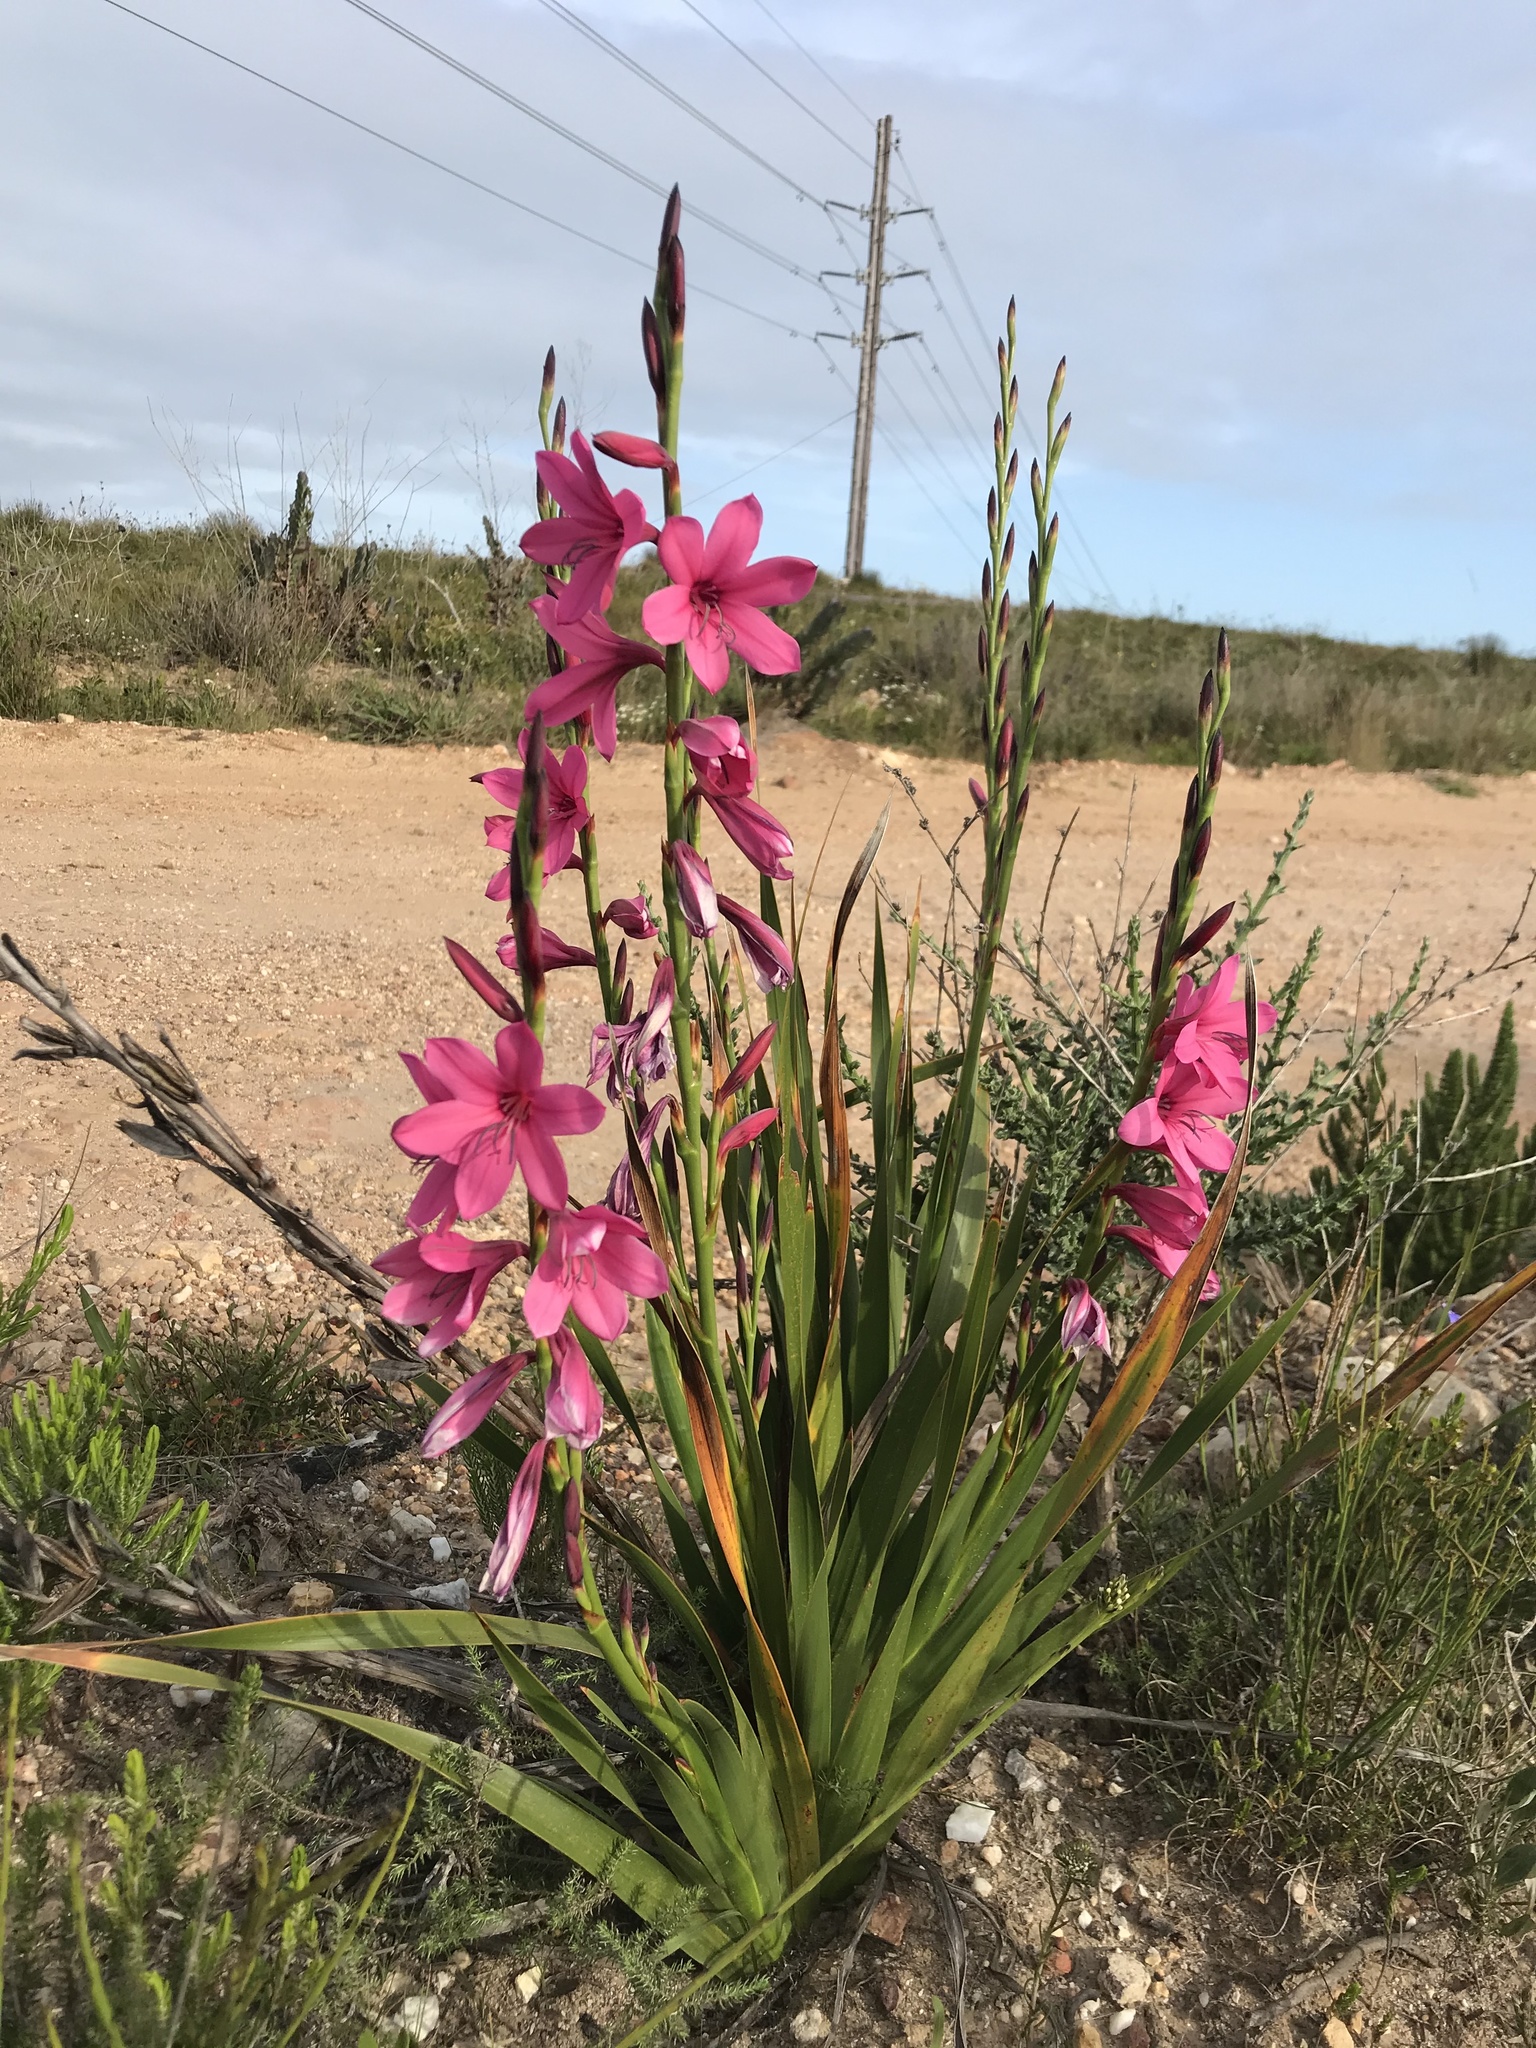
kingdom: Plantae
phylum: Tracheophyta
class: Liliopsida
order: Asparagales
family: Iridaceae
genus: Watsonia
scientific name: Watsonia borbonica
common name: Bugle-lily
